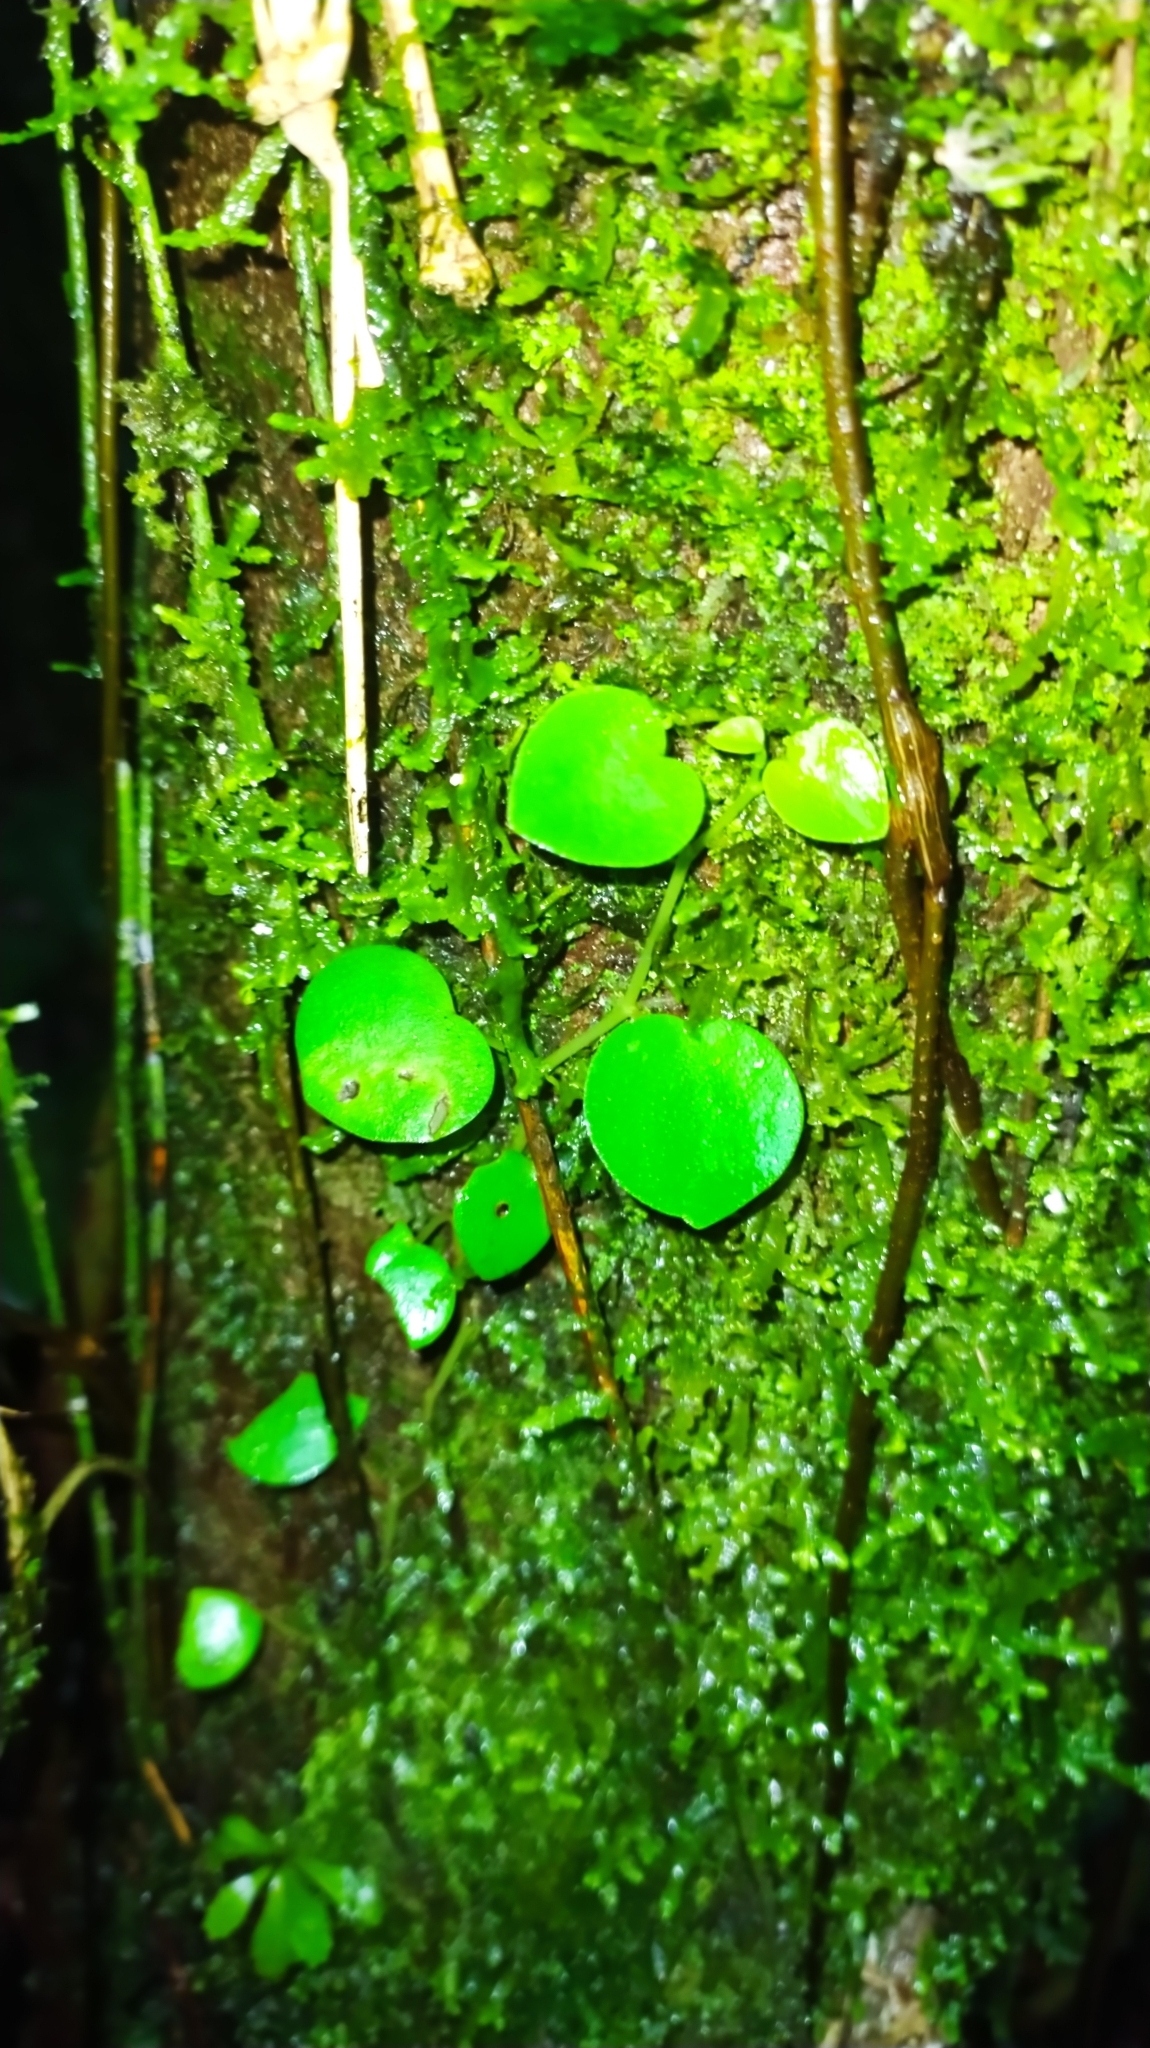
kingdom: Plantae
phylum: Tracheophyta
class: Magnoliopsida
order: Piperales
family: Piperaceae
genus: Peperomia
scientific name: Peperomia serpens
